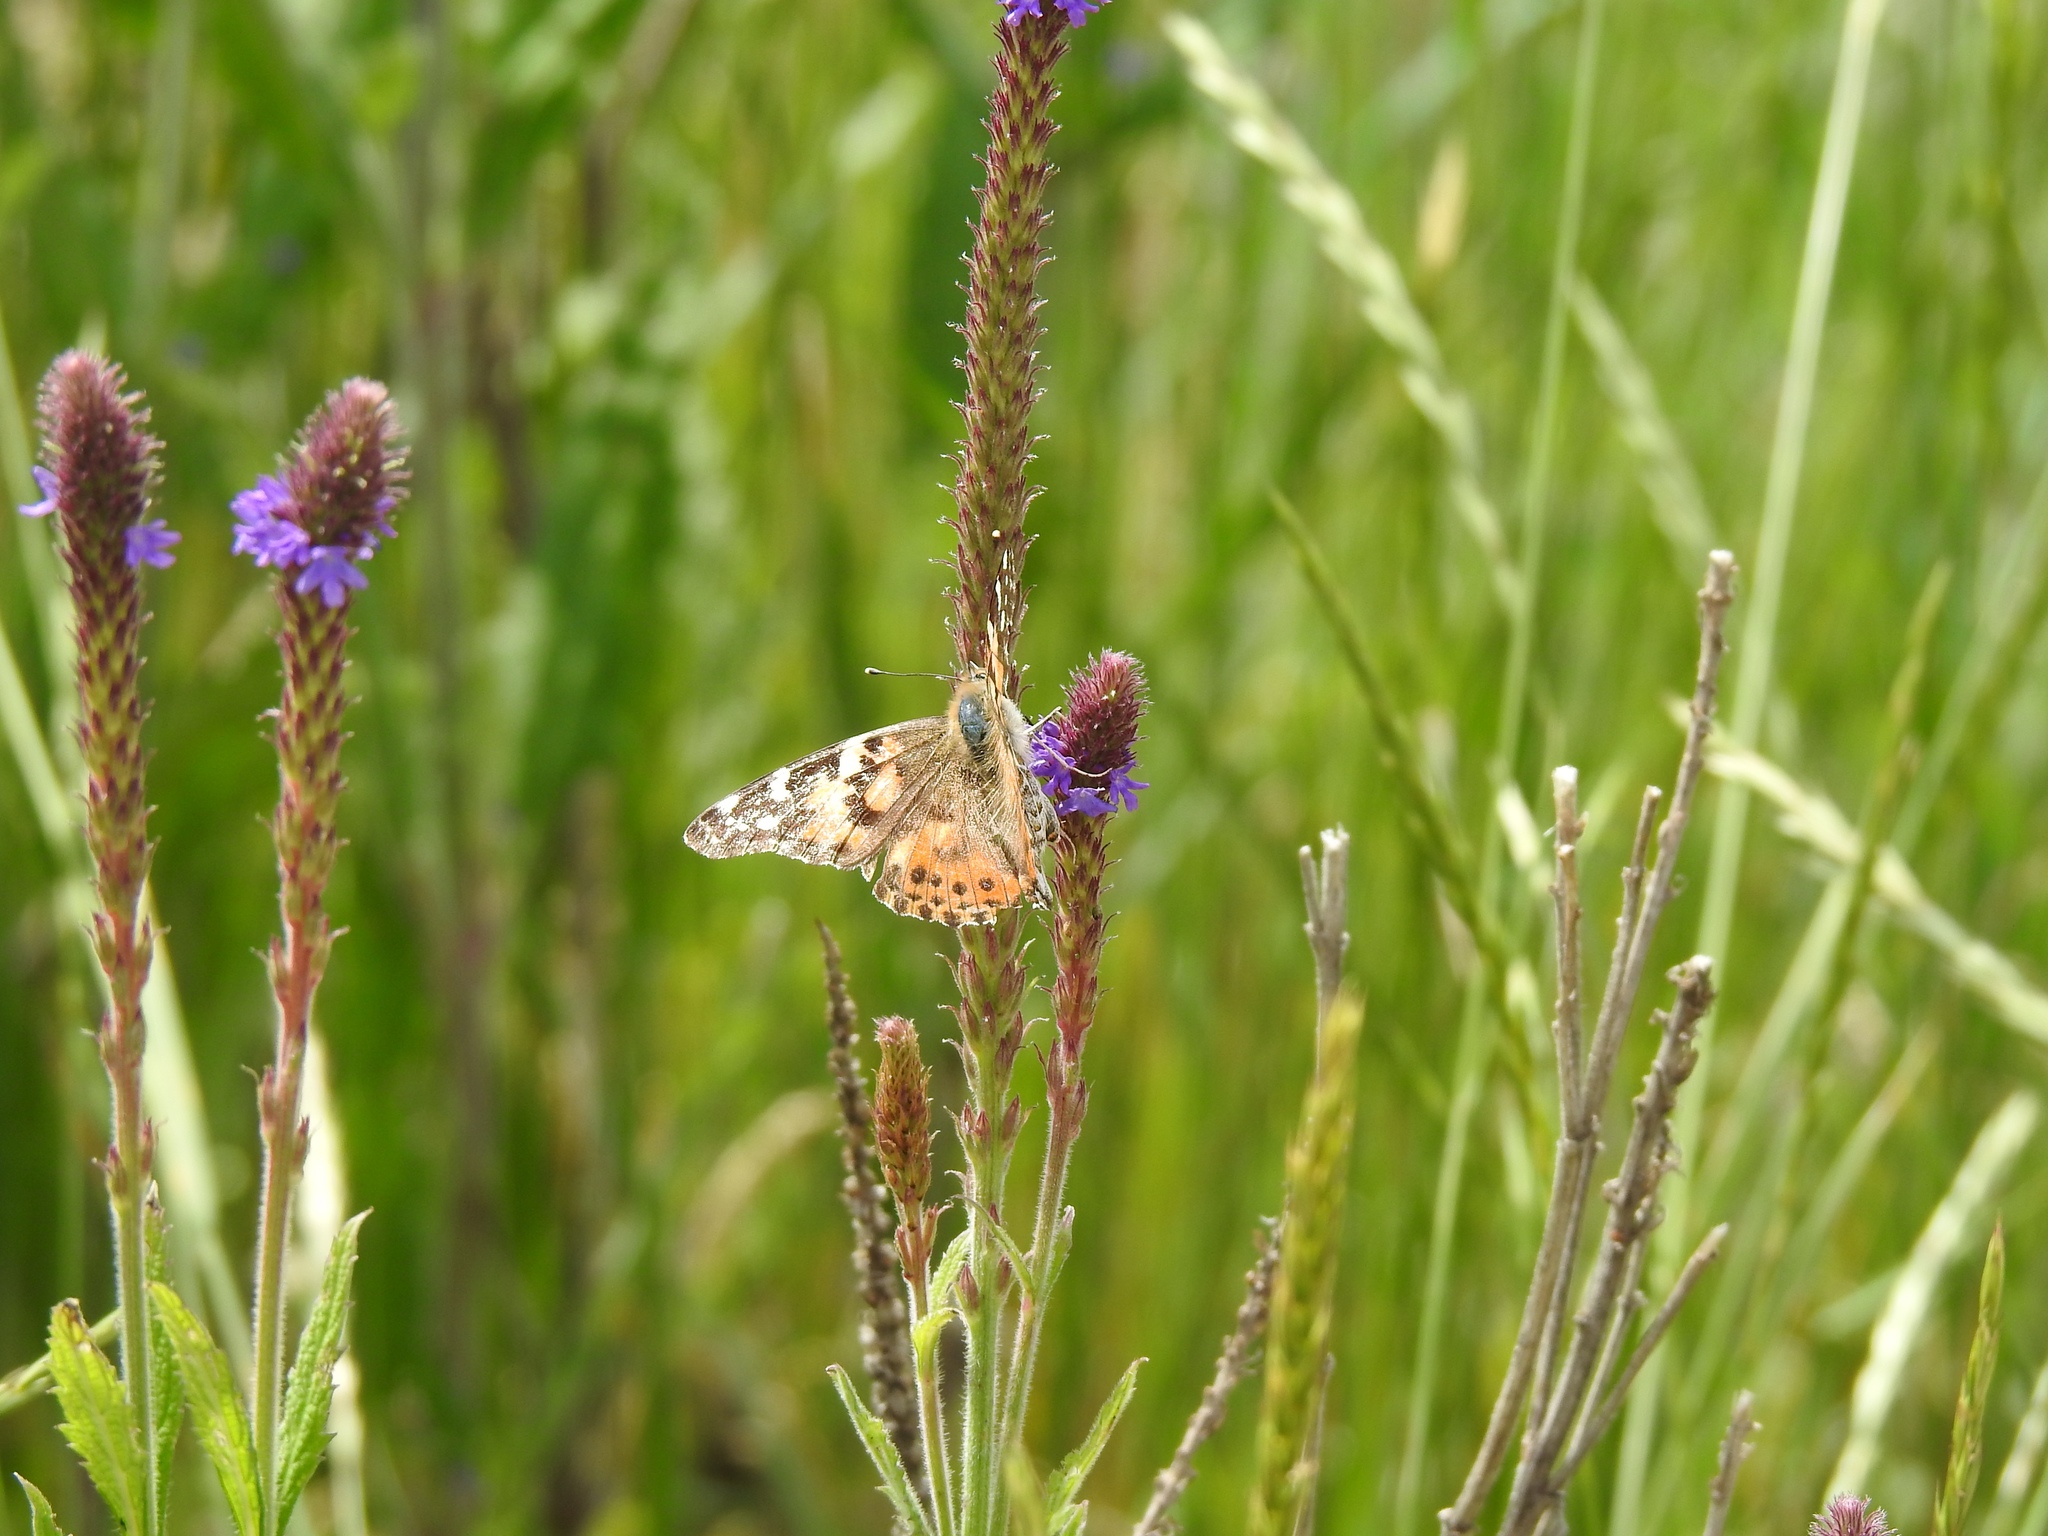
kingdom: Animalia
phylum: Arthropoda
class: Insecta
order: Lepidoptera
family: Nymphalidae
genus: Vanessa
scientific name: Vanessa cardui
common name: Painted lady
